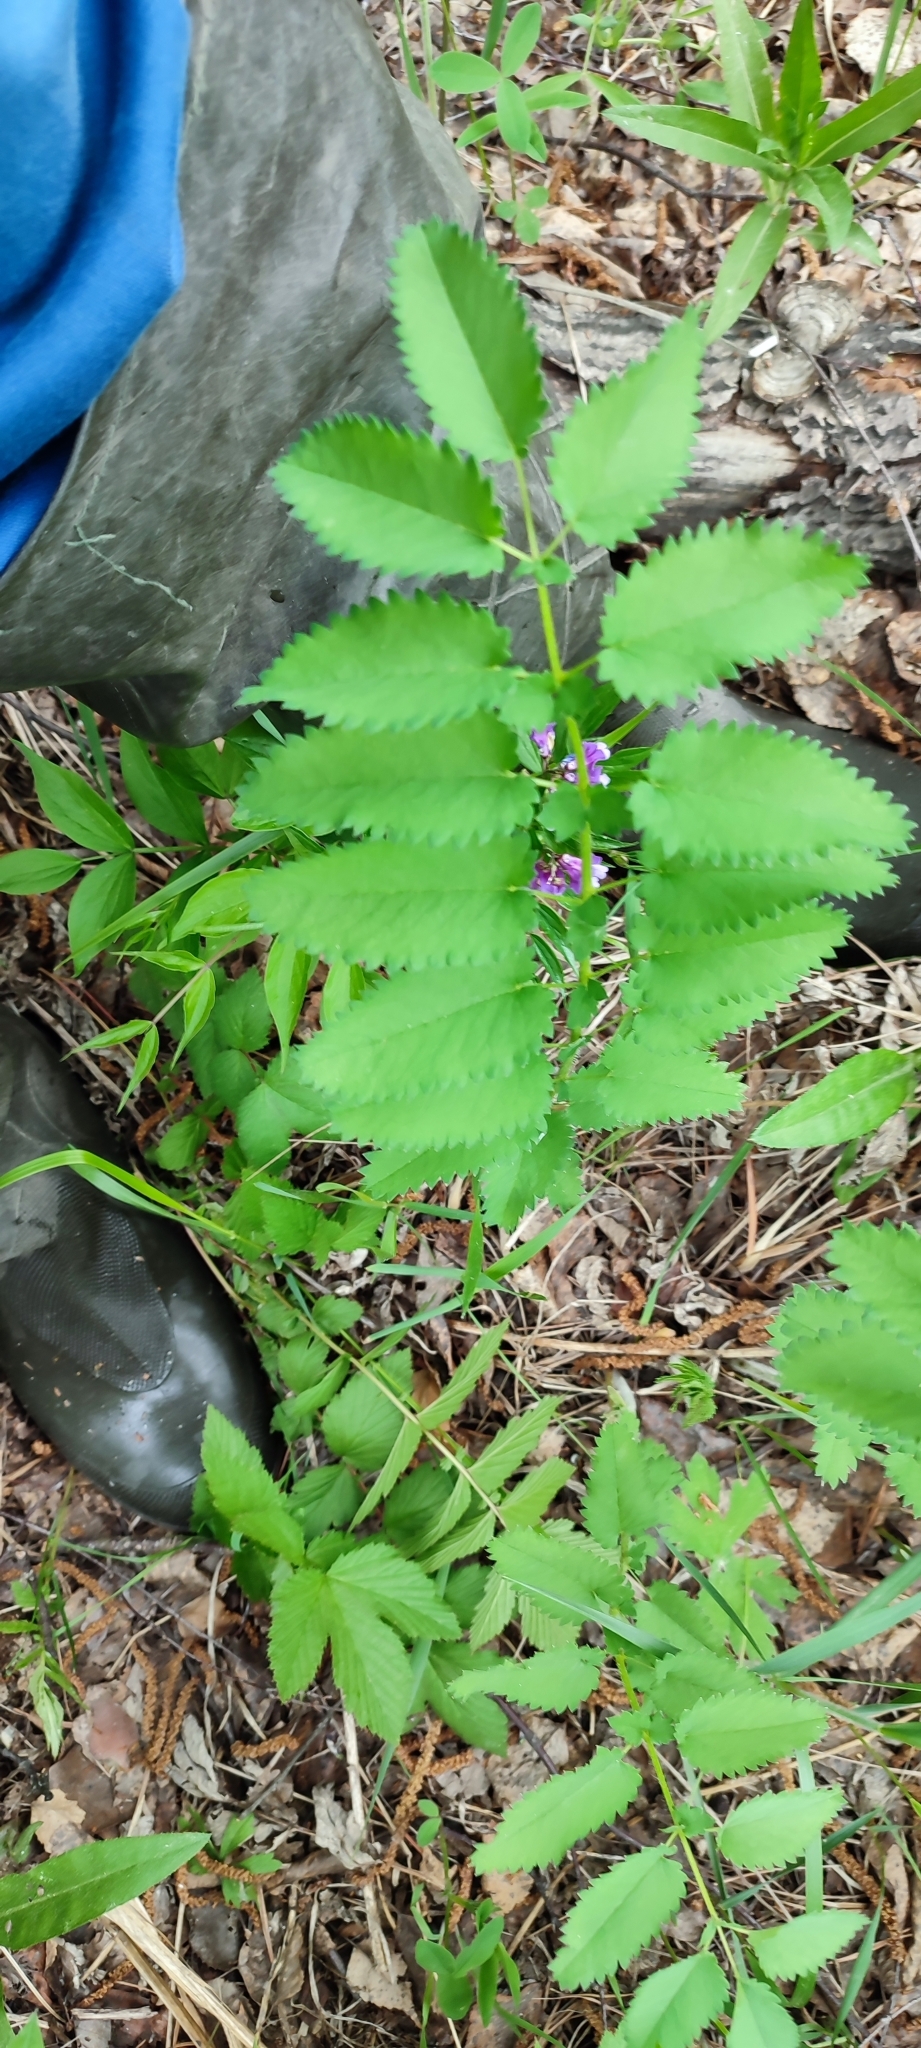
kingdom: Plantae
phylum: Tracheophyta
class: Magnoliopsida
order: Rosales
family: Rosaceae
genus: Sanguisorba
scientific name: Sanguisorba officinalis
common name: Great burnet
